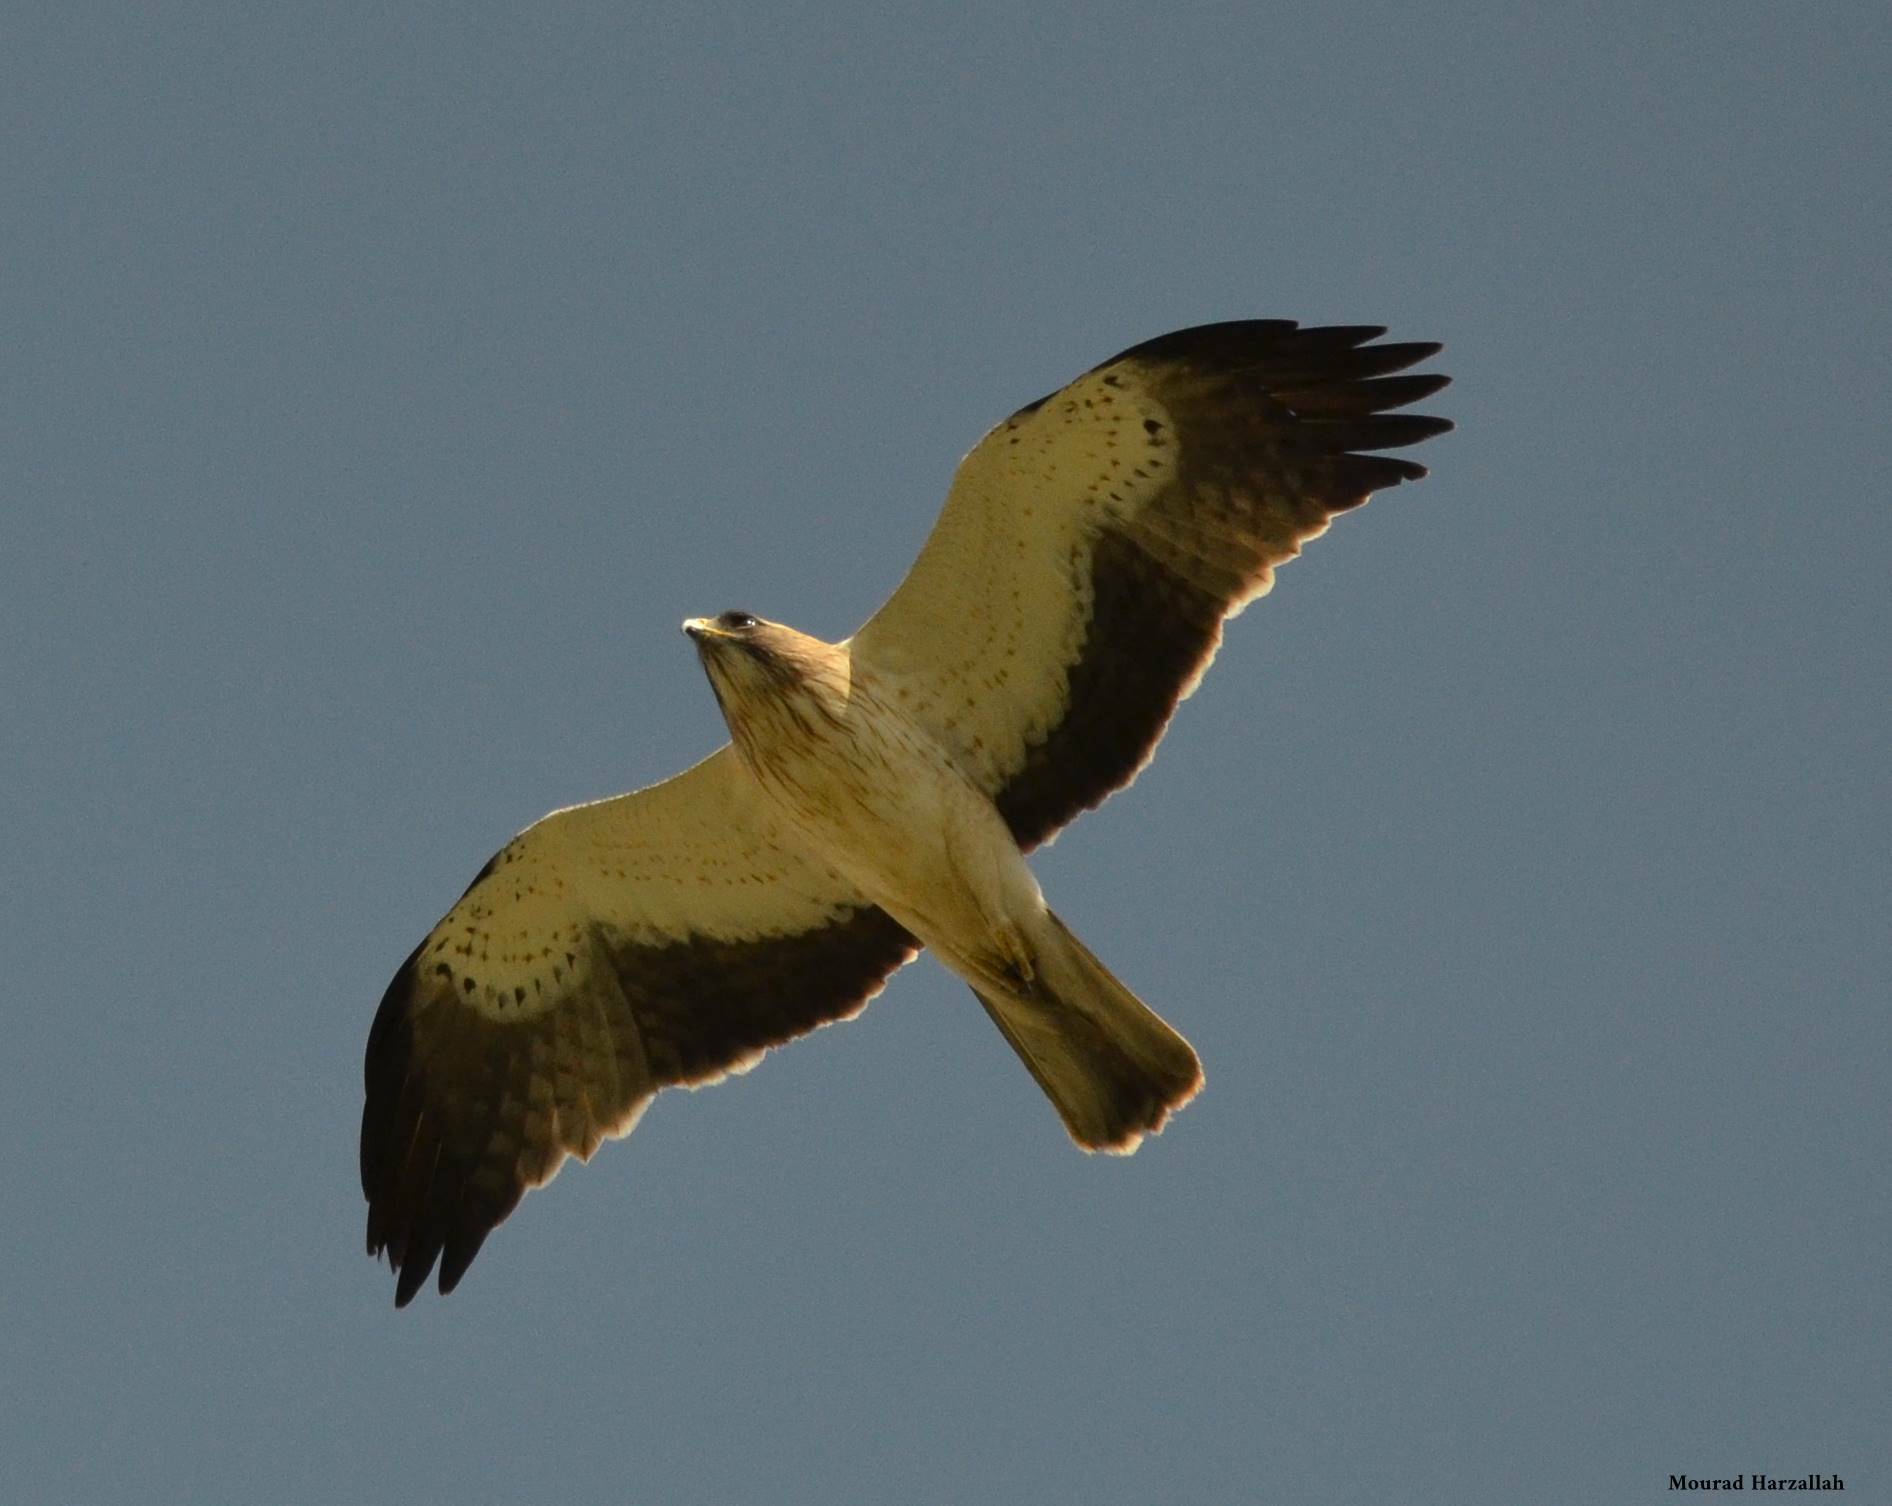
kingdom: Animalia
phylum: Chordata
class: Aves
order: Accipitriformes
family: Accipitridae
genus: Hieraaetus
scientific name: Hieraaetus pennatus
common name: Booted eagle
